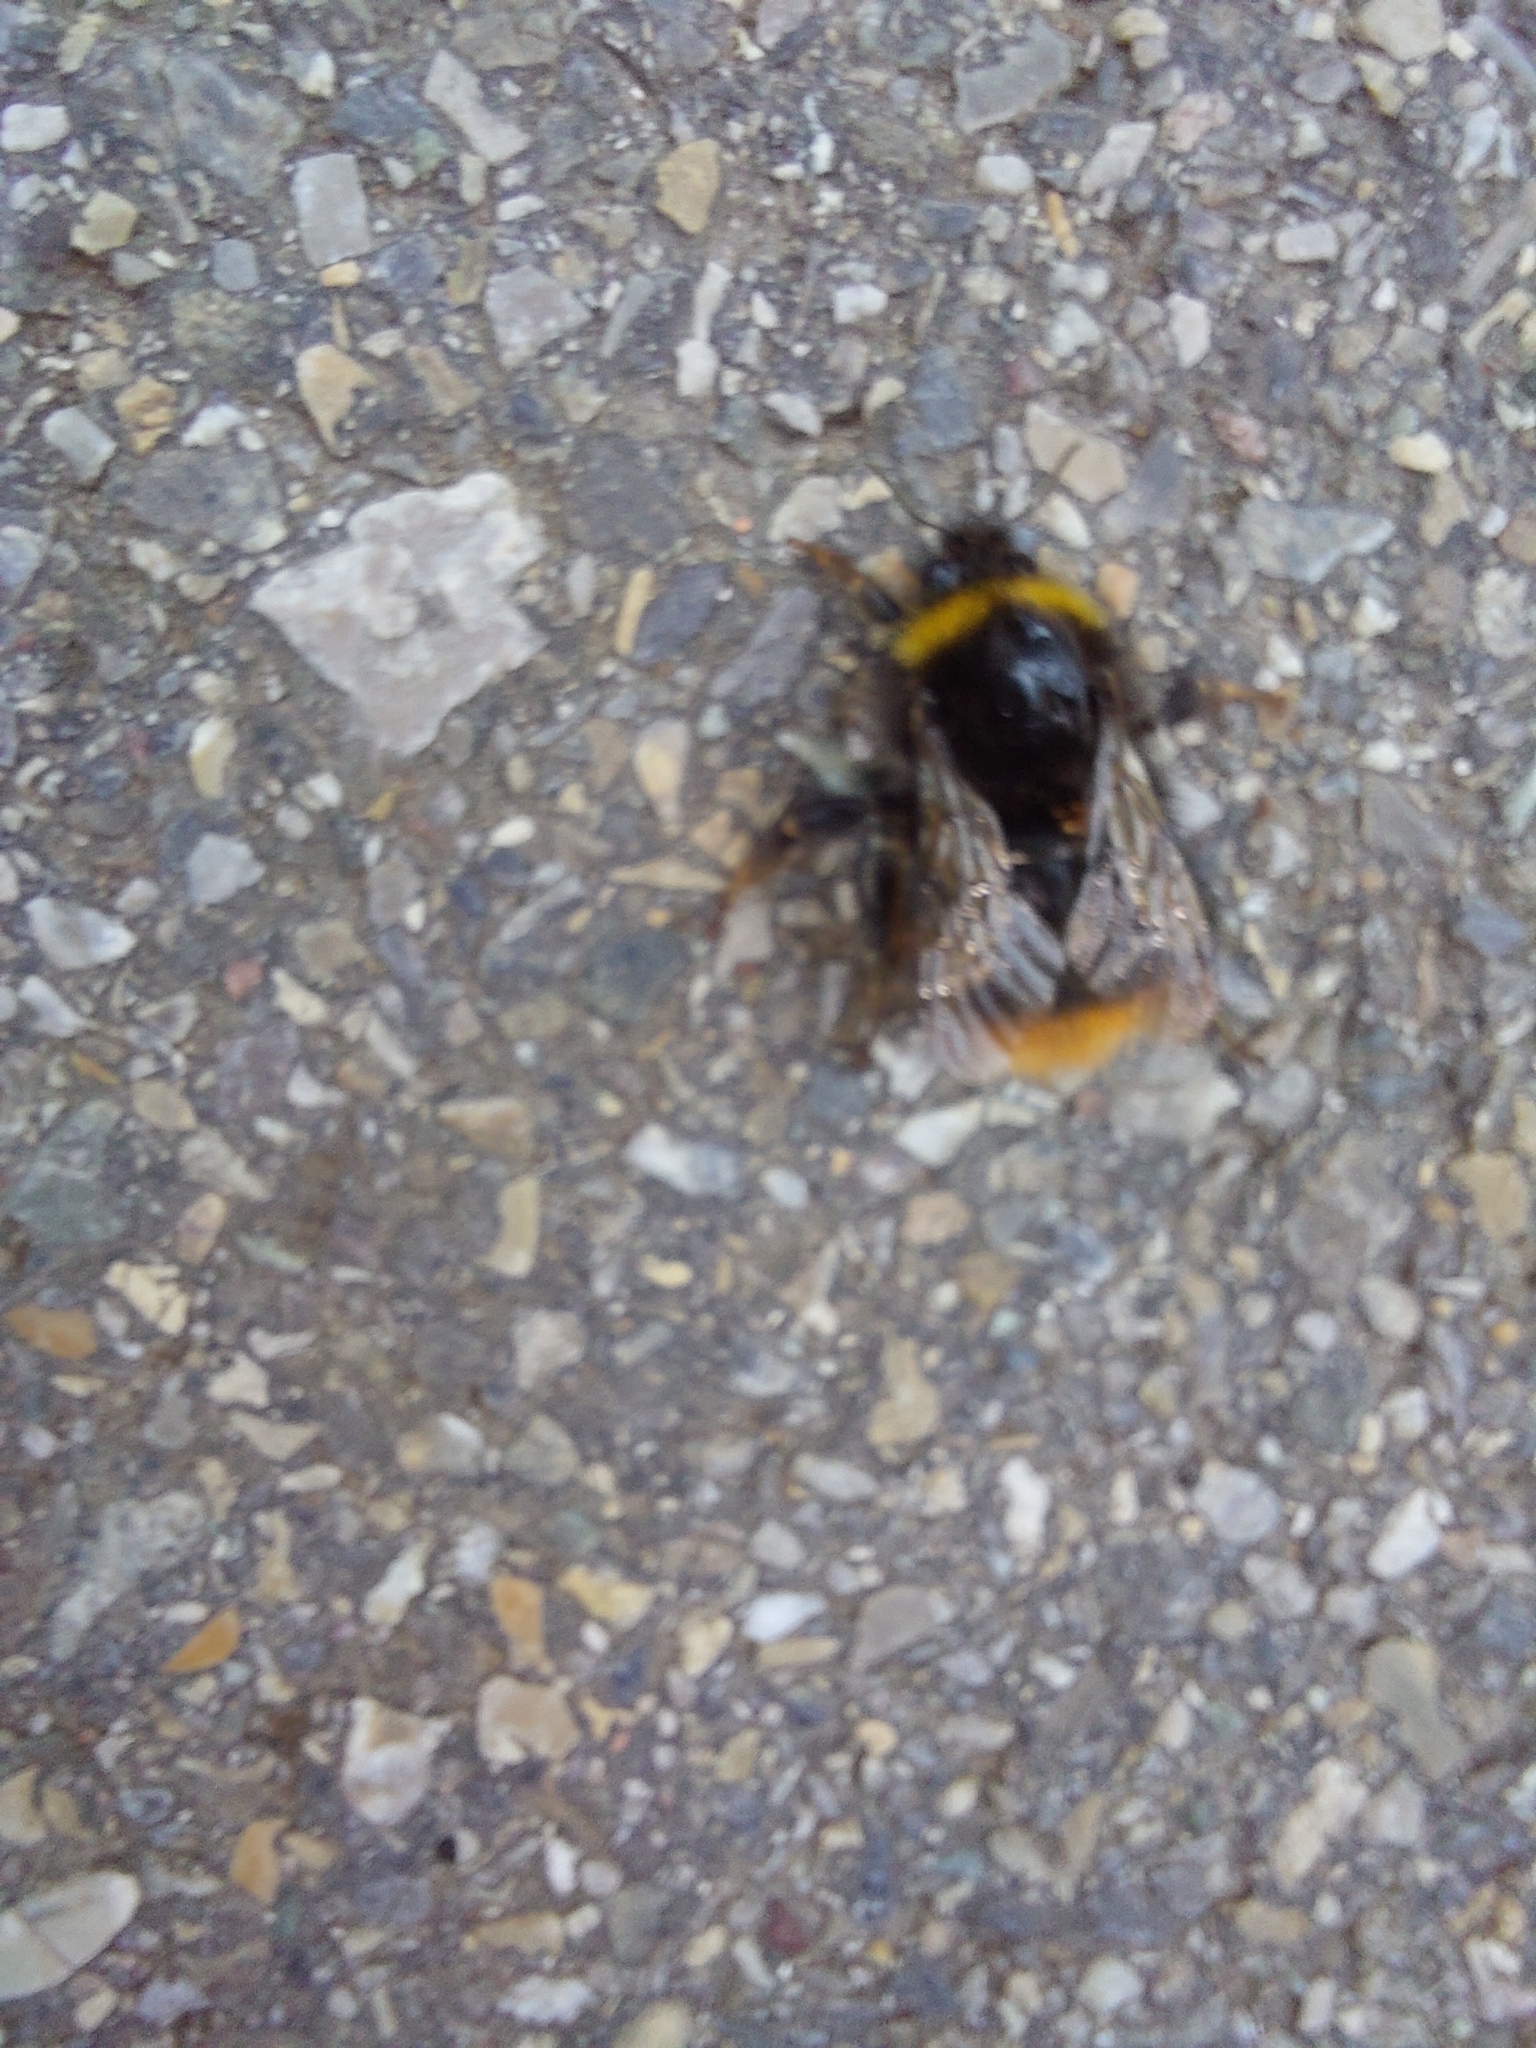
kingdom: Animalia
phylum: Arthropoda
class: Insecta
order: Hymenoptera
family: Apidae
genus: Bombus
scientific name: Bombus pratorum
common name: Early humble-bee
